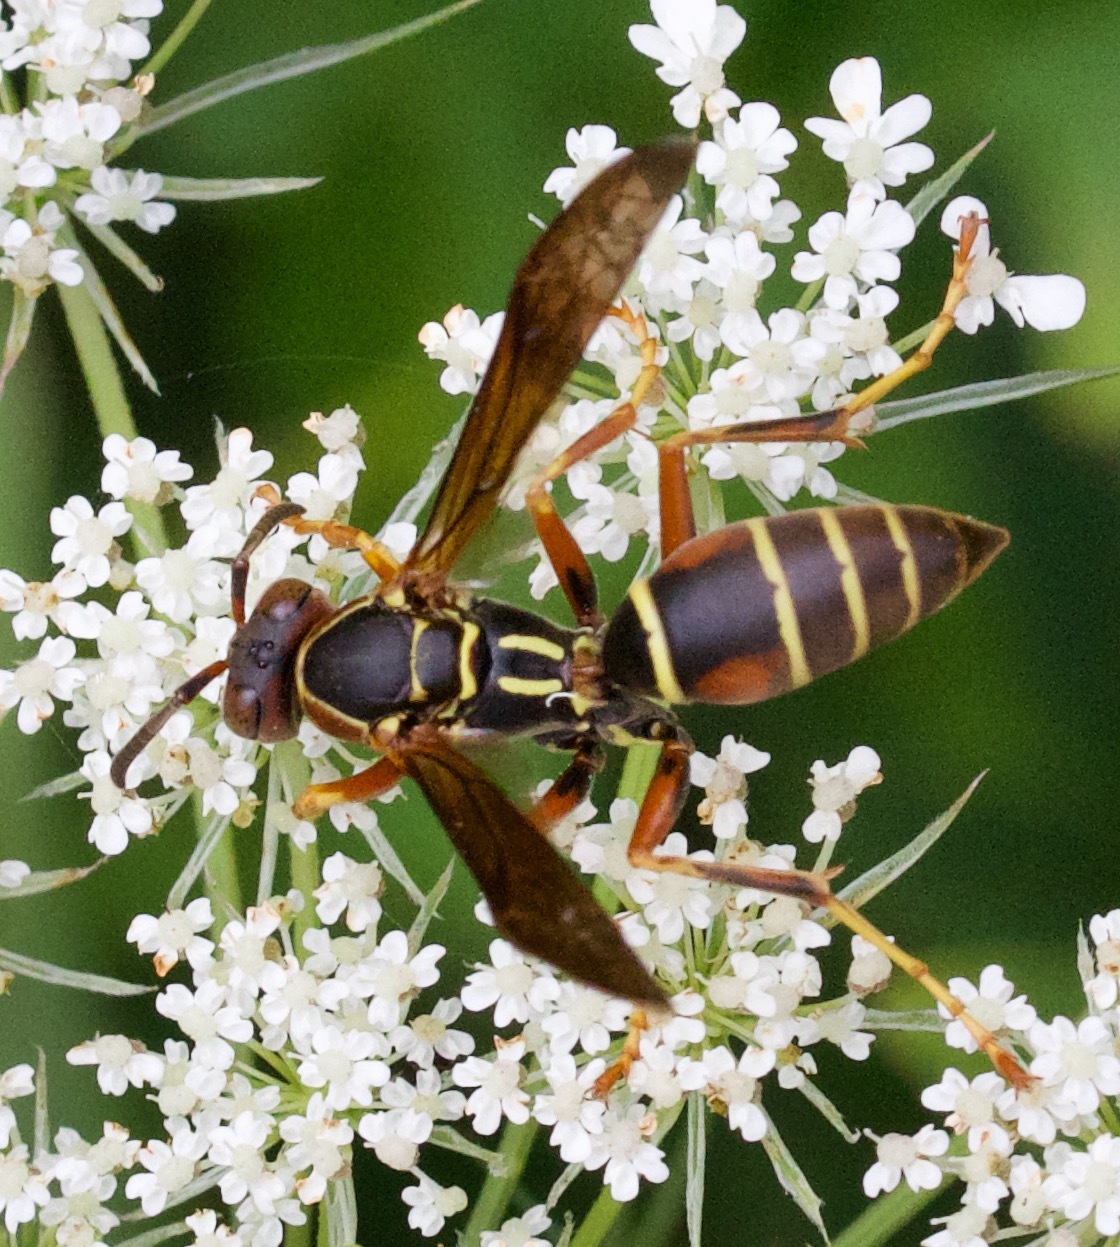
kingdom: Animalia
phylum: Arthropoda
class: Insecta
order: Hymenoptera
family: Eumenidae
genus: Polistes
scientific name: Polistes fuscatus
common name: Dark paper wasp
